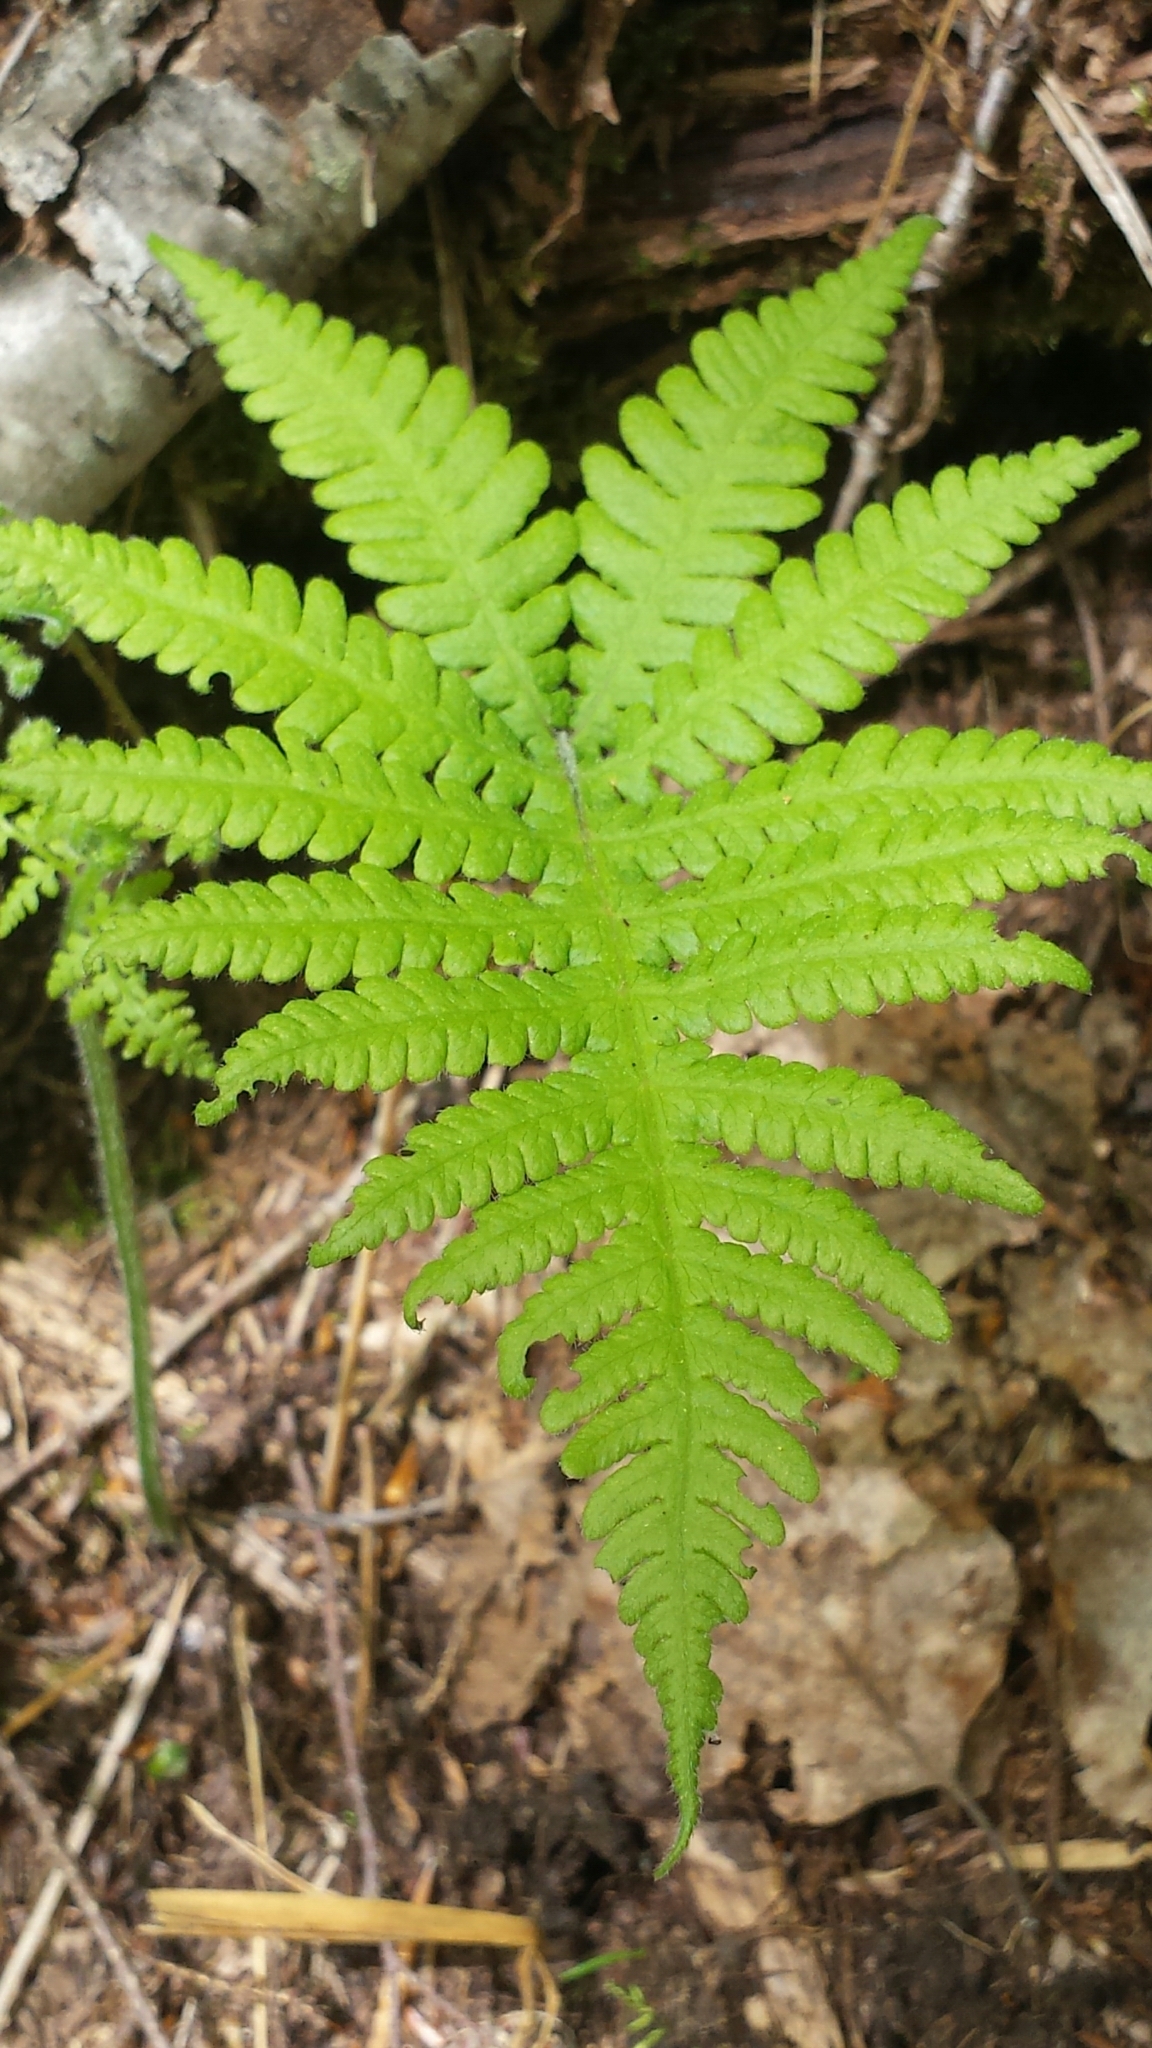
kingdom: Plantae
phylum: Tracheophyta
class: Polypodiopsida
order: Polypodiales
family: Thelypteridaceae
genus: Phegopteris
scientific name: Phegopteris connectilis
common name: Beech fern
